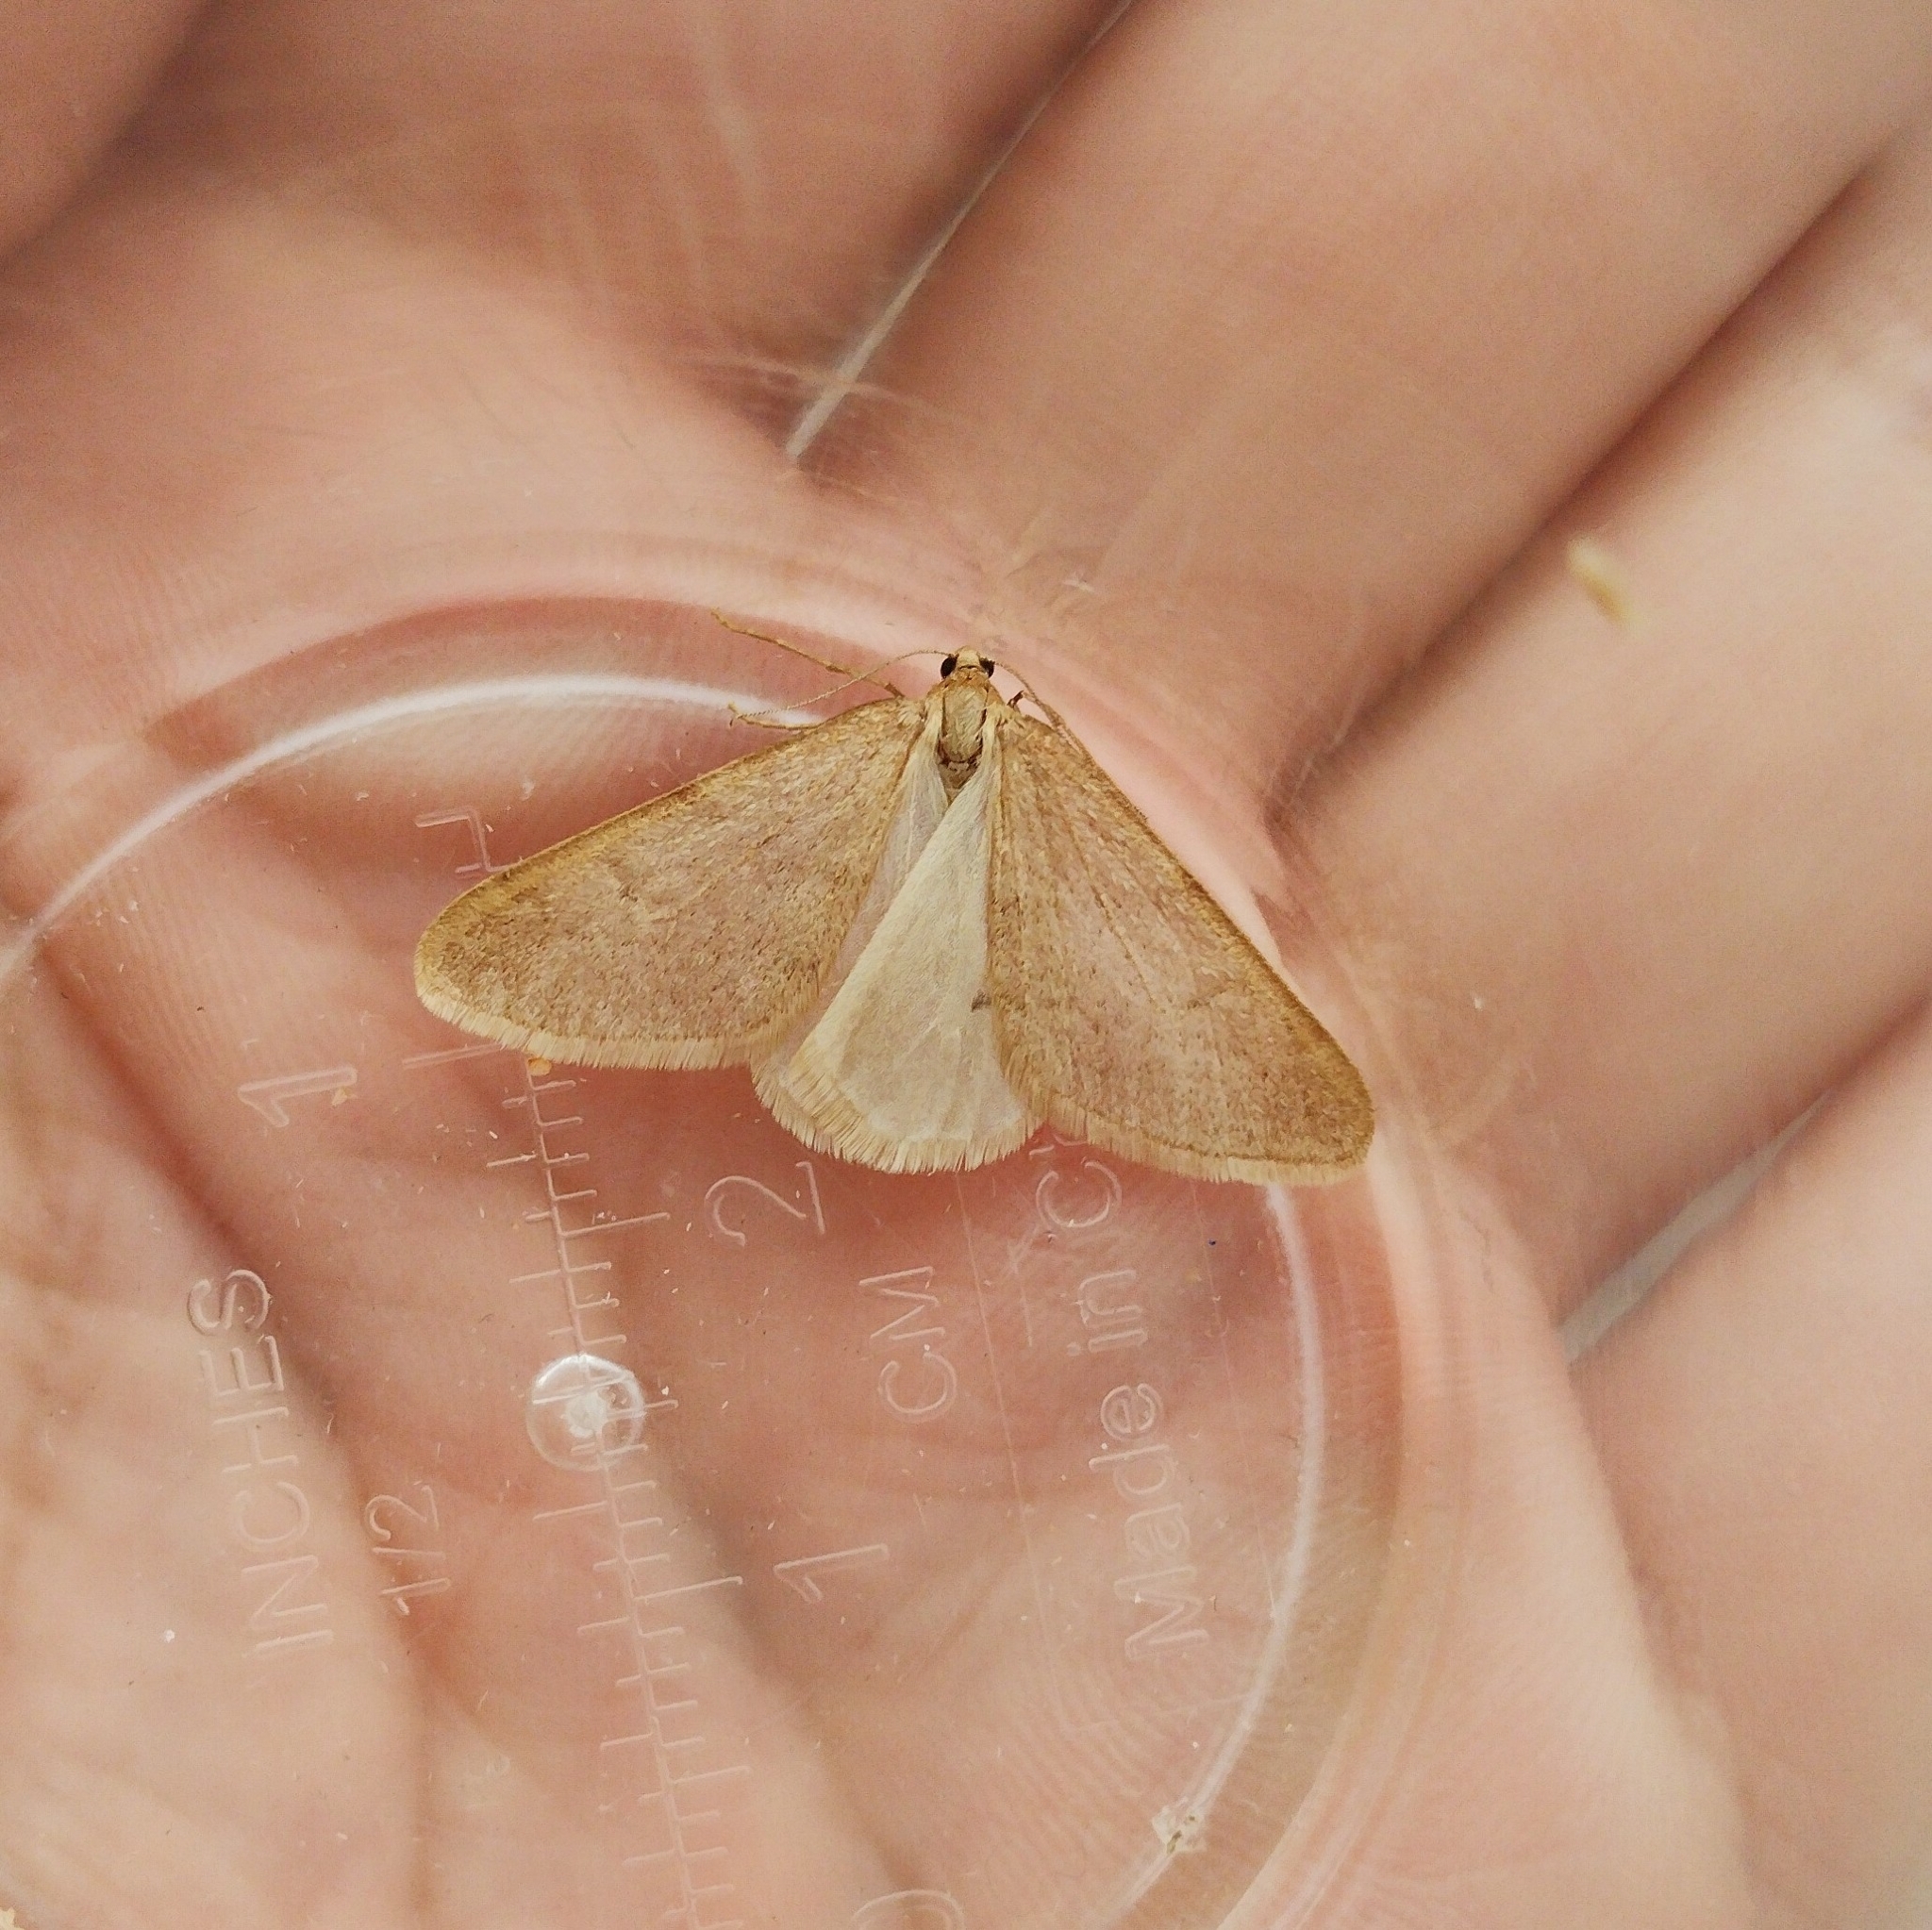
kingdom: Animalia
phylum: Arthropoda
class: Insecta
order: Lepidoptera
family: Geometridae
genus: Alsophila
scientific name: Alsophila aceraria
